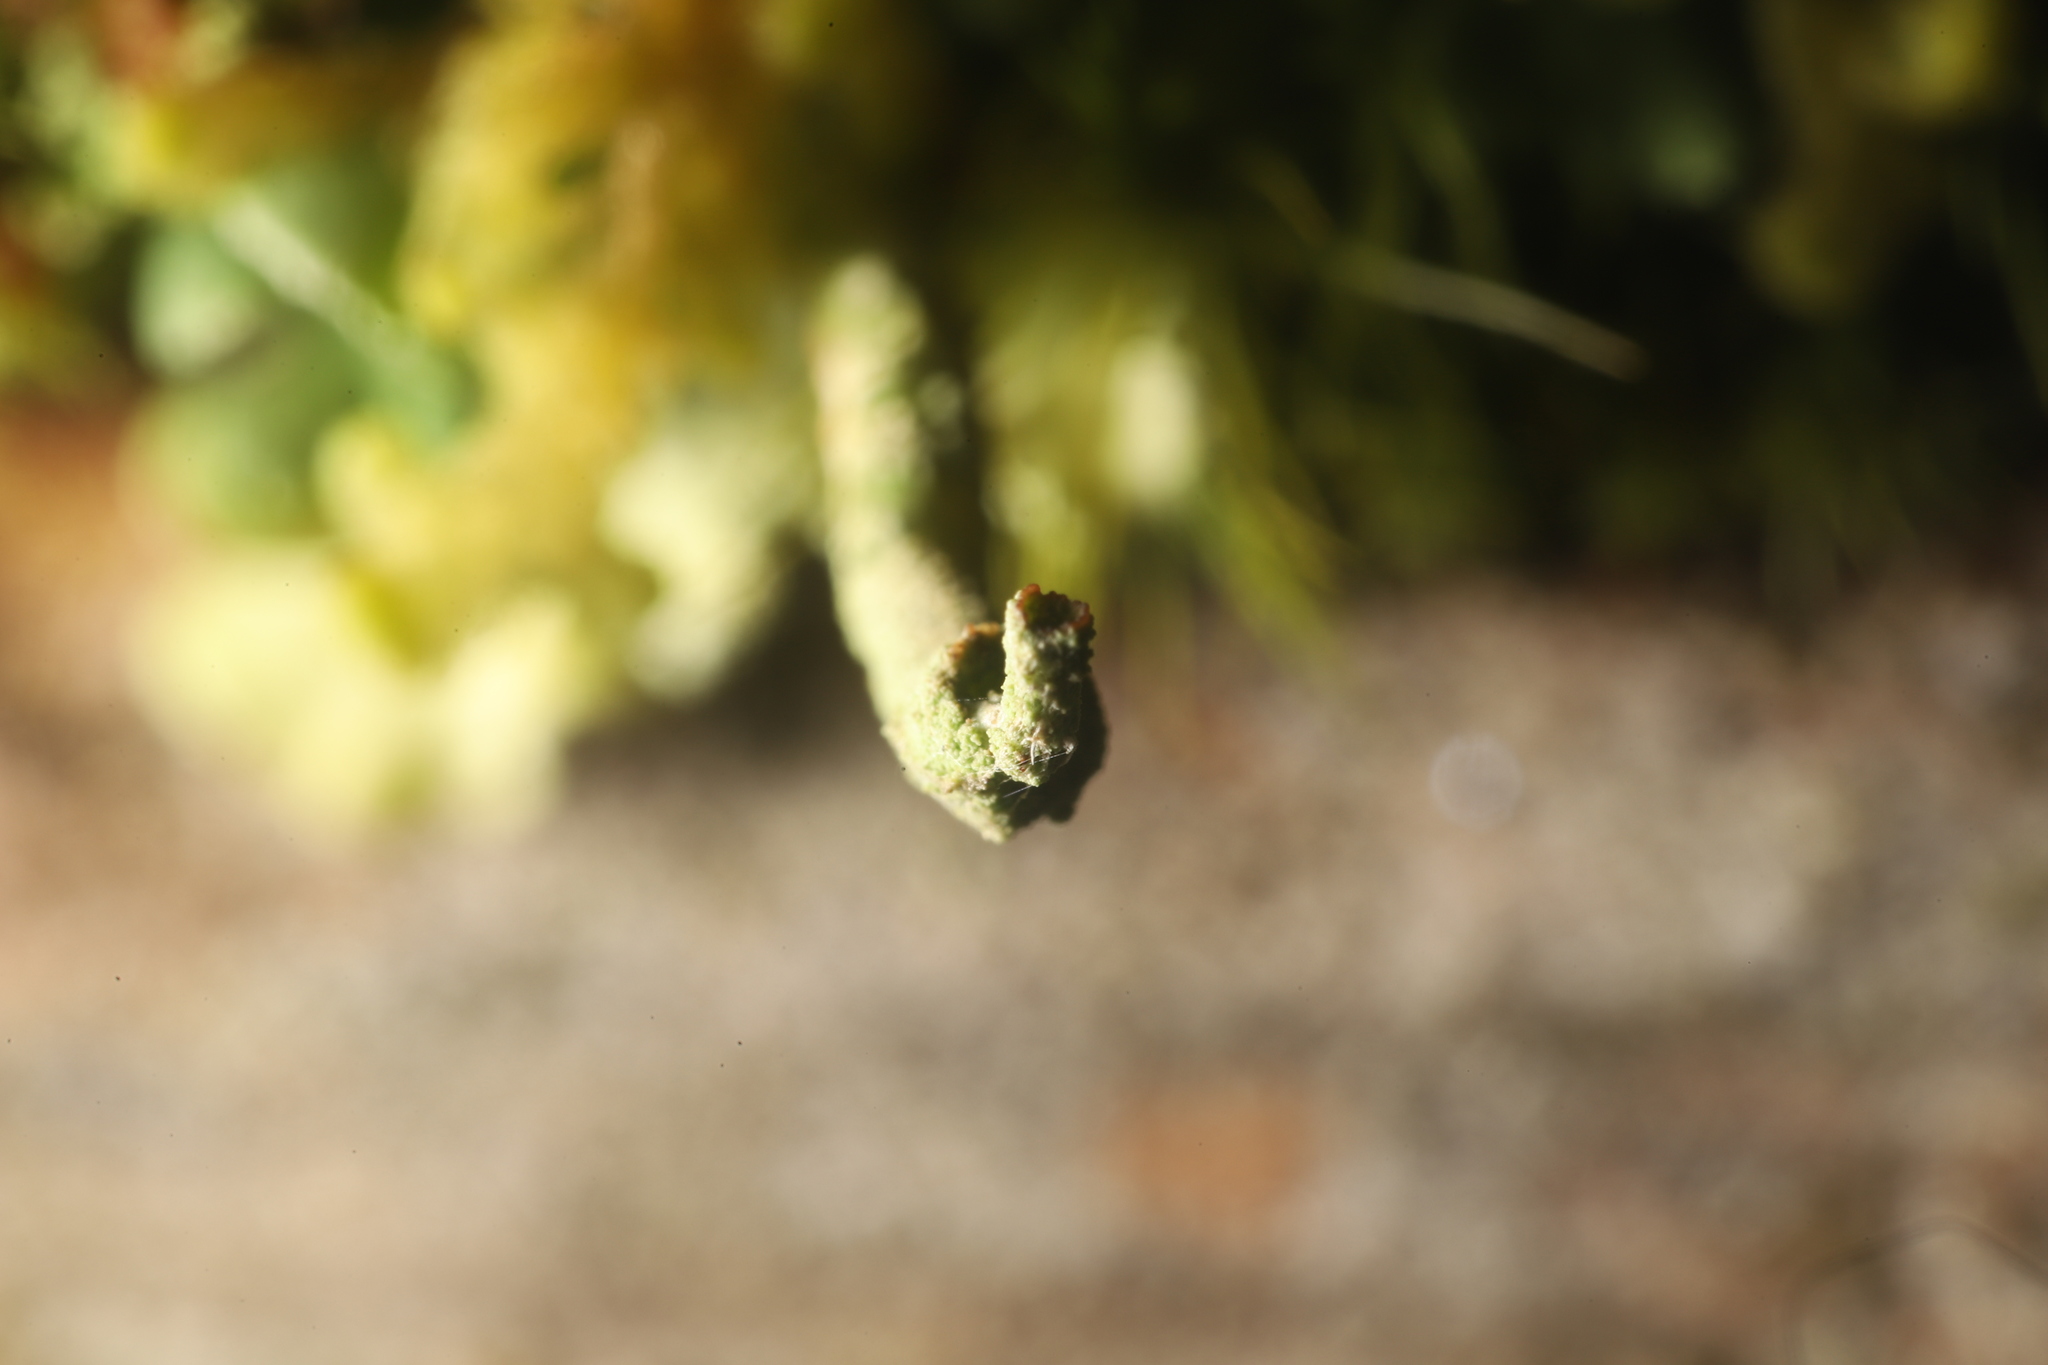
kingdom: Fungi
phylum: Ascomycota
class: Lecanoromycetes
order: Lecanorales
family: Cladoniaceae
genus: Cladonia
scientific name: Cladonia coniocraea
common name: Common powderhorn
